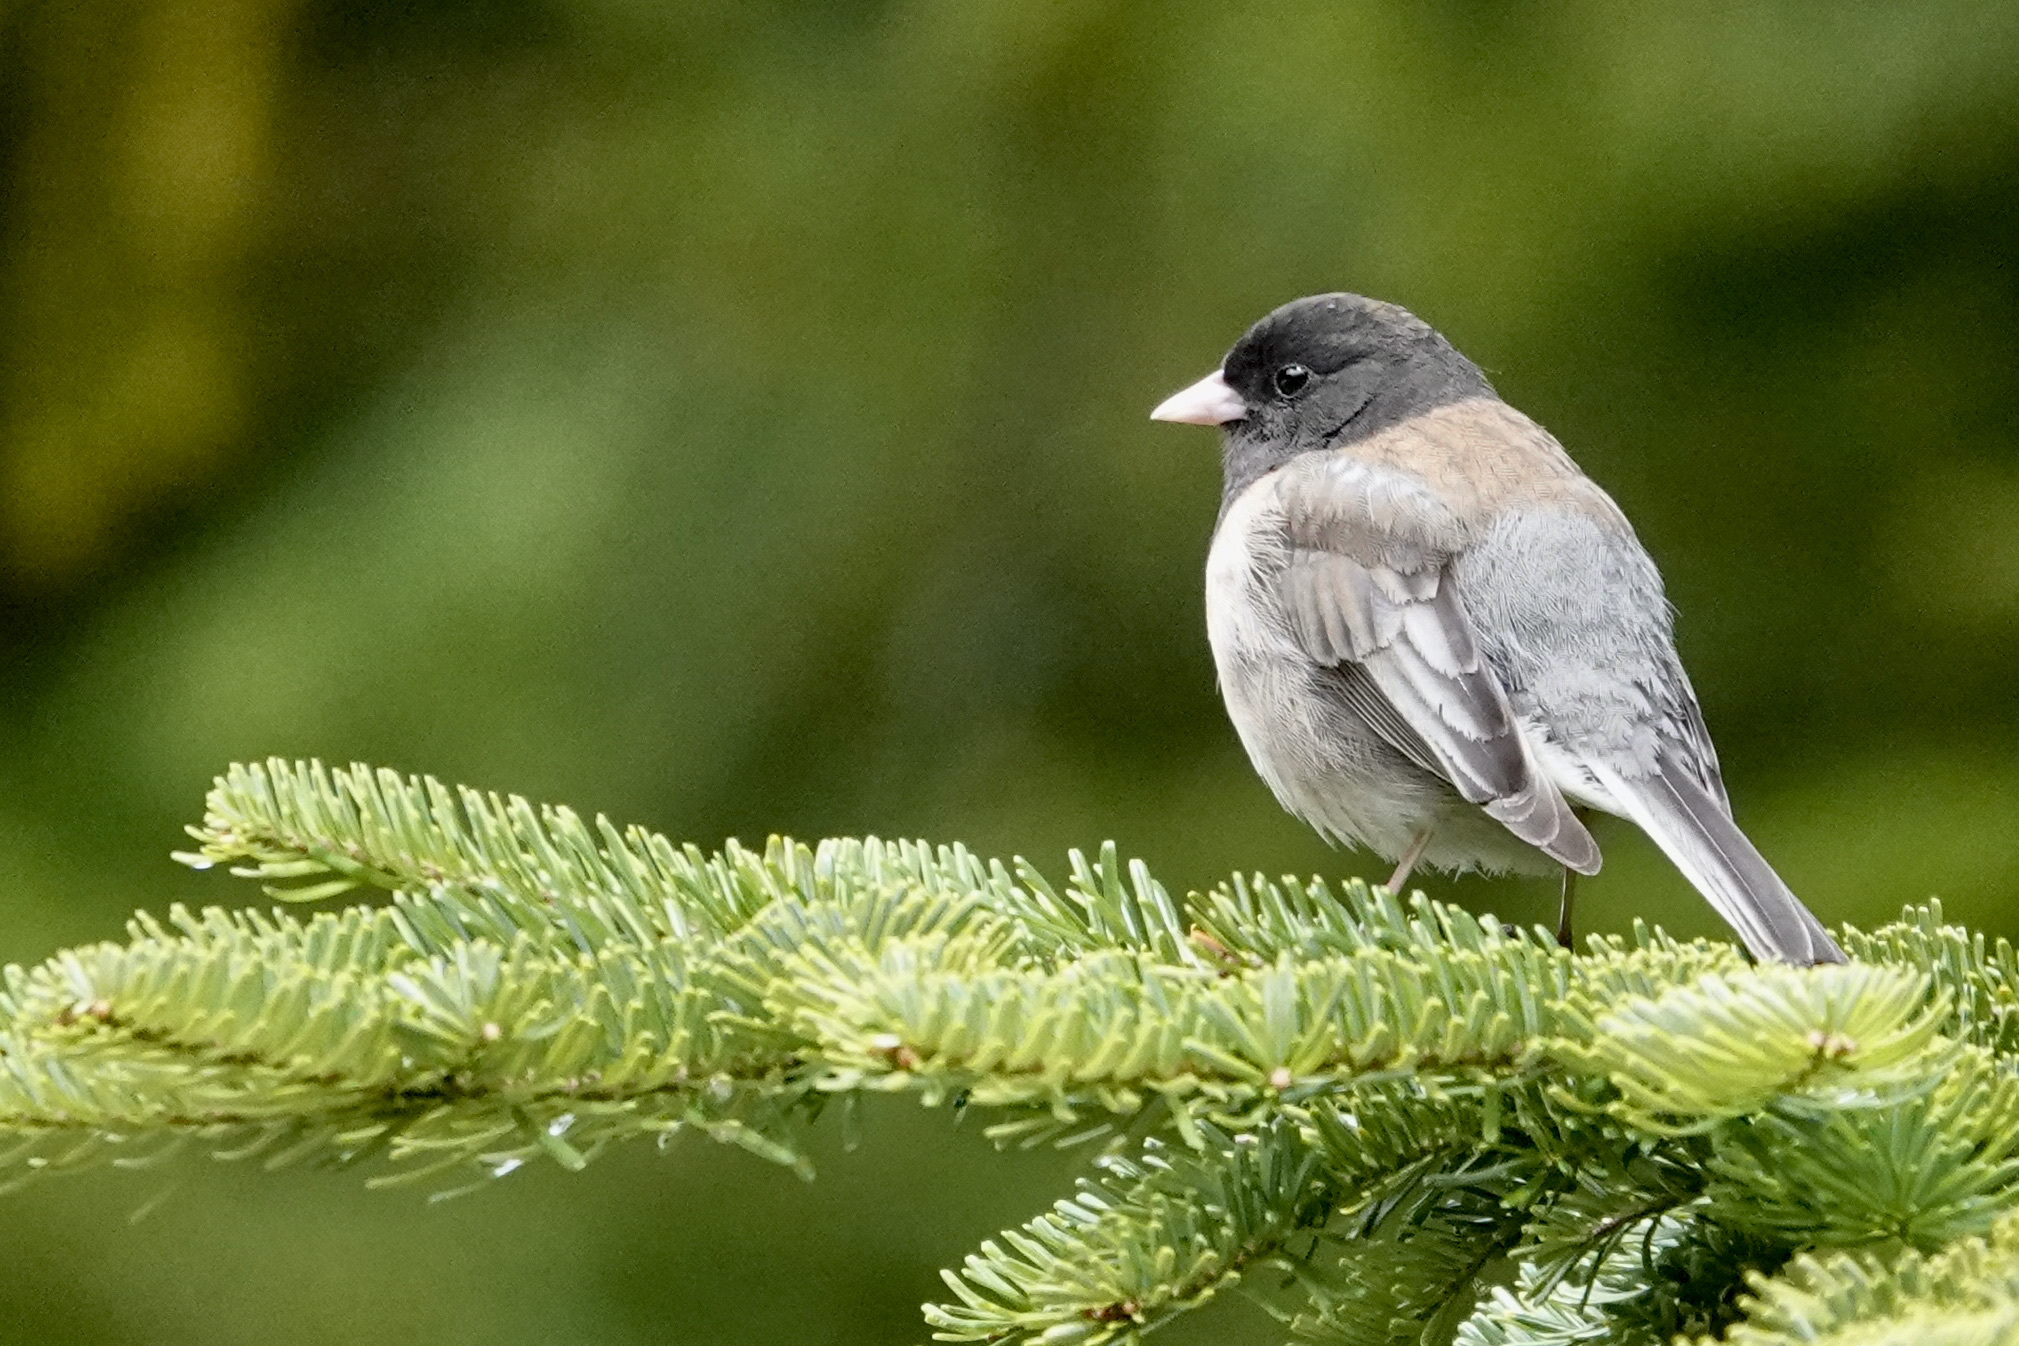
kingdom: Animalia
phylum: Chordata
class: Aves
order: Passeriformes
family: Passerellidae
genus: Junco
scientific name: Junco hyemalis
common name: Dark-eyed junco
